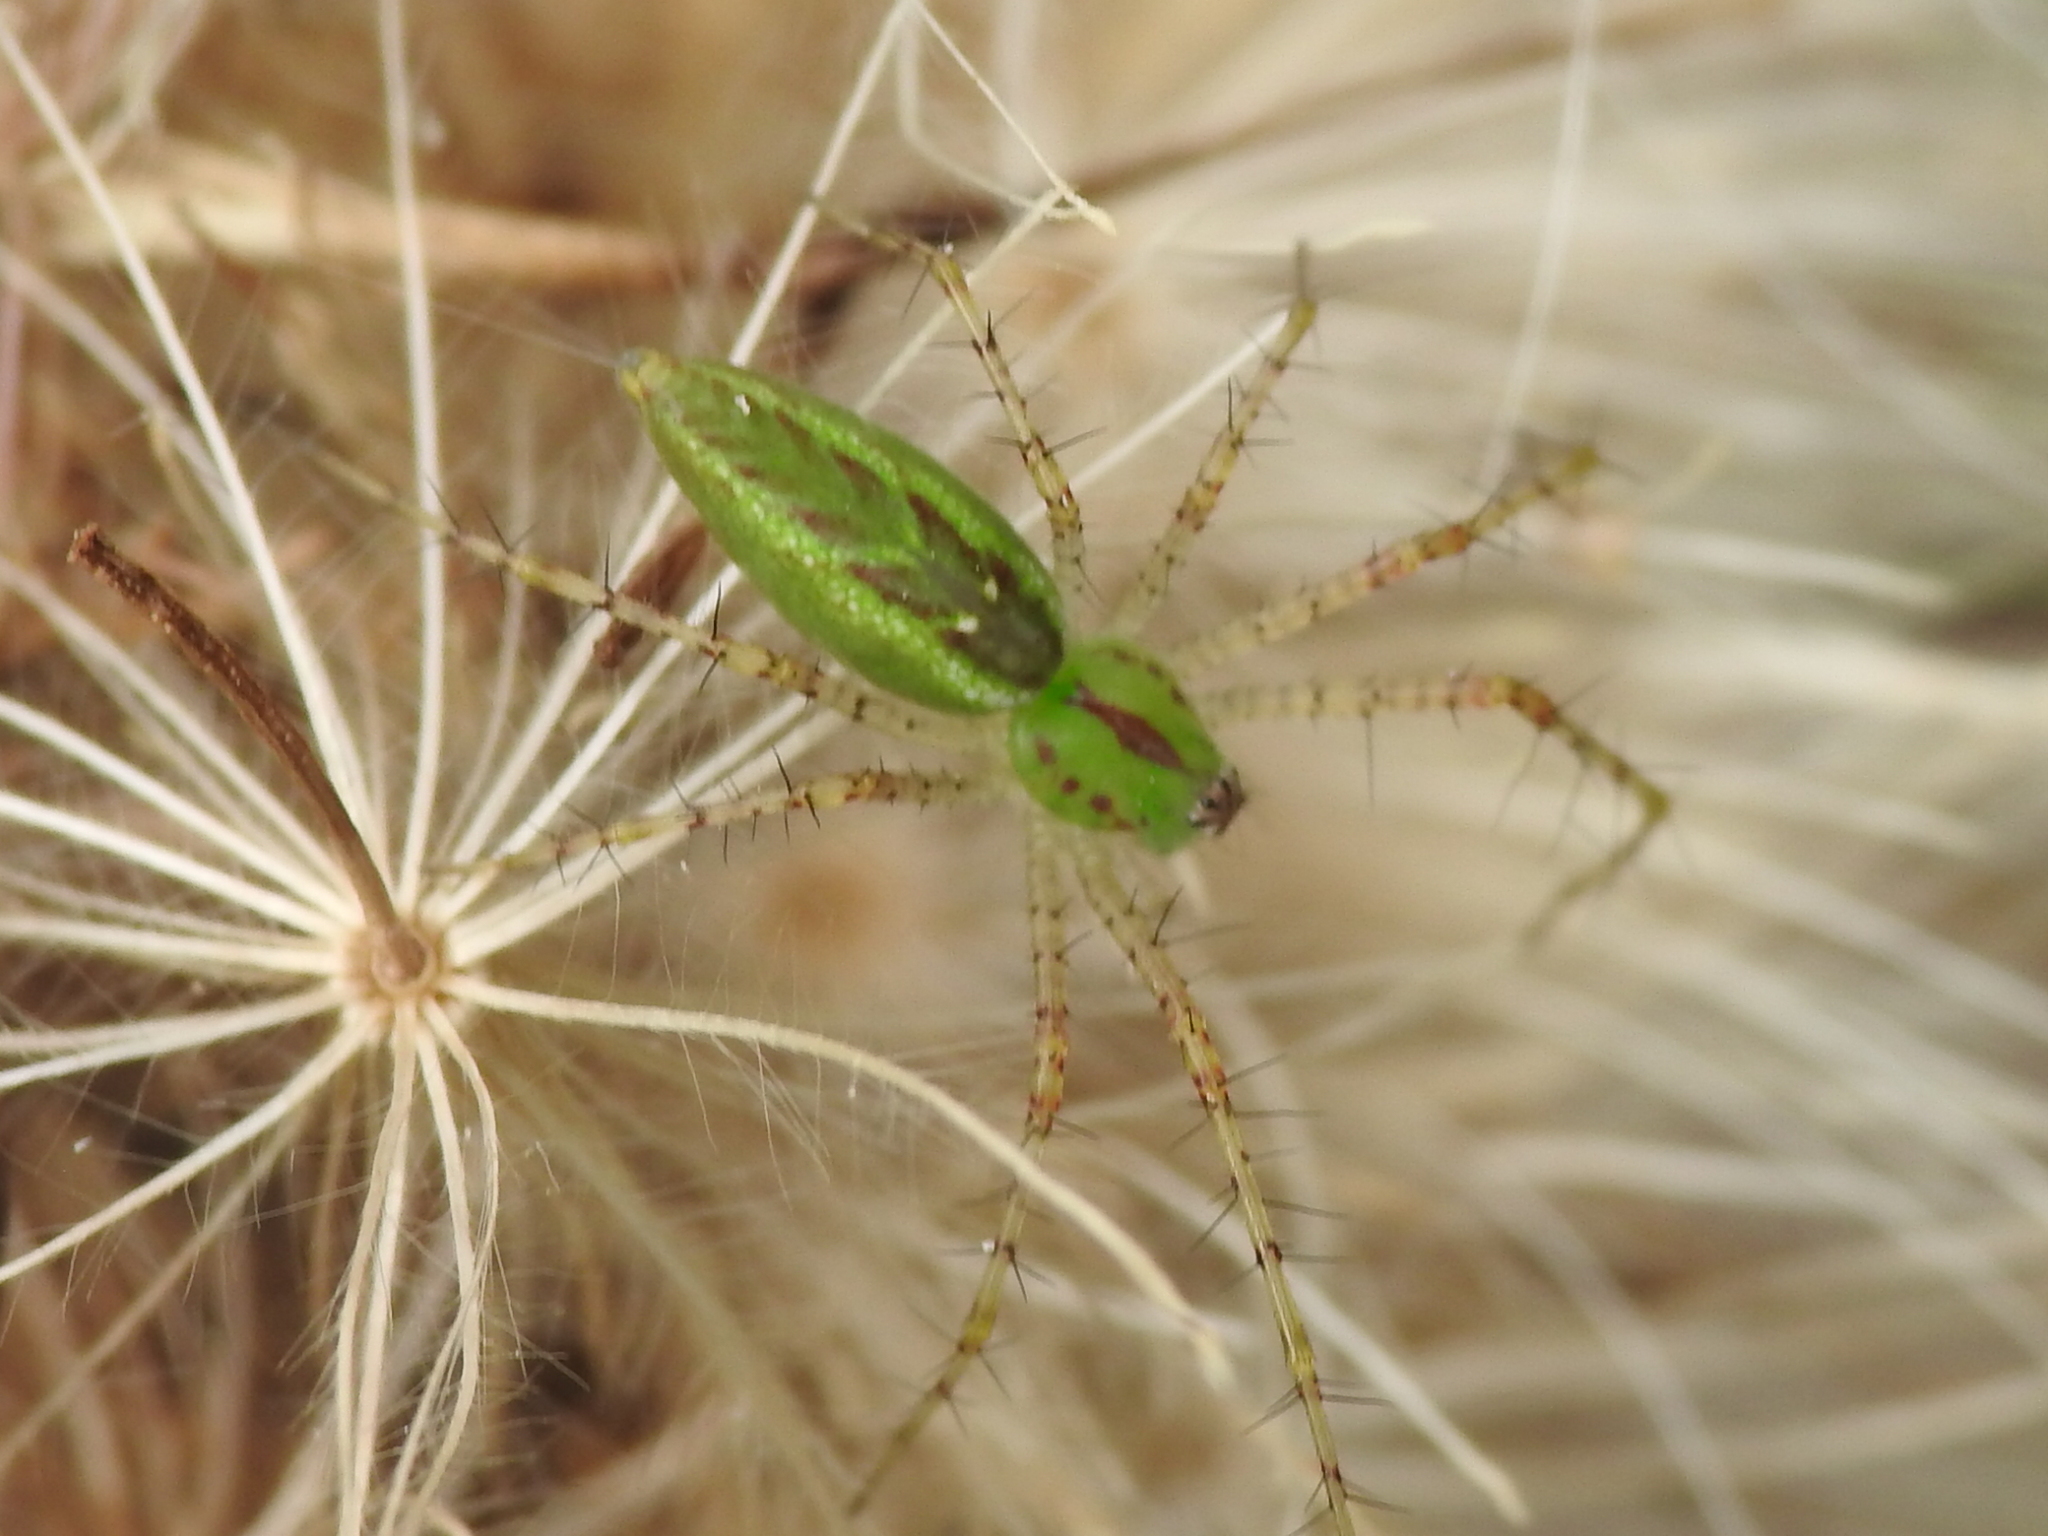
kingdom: Animalia
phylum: Arthropoda
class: Arachnida
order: Araneae
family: Oxyopidae
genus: Peucetia
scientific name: Peucetia viridans
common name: Lynx spiders
